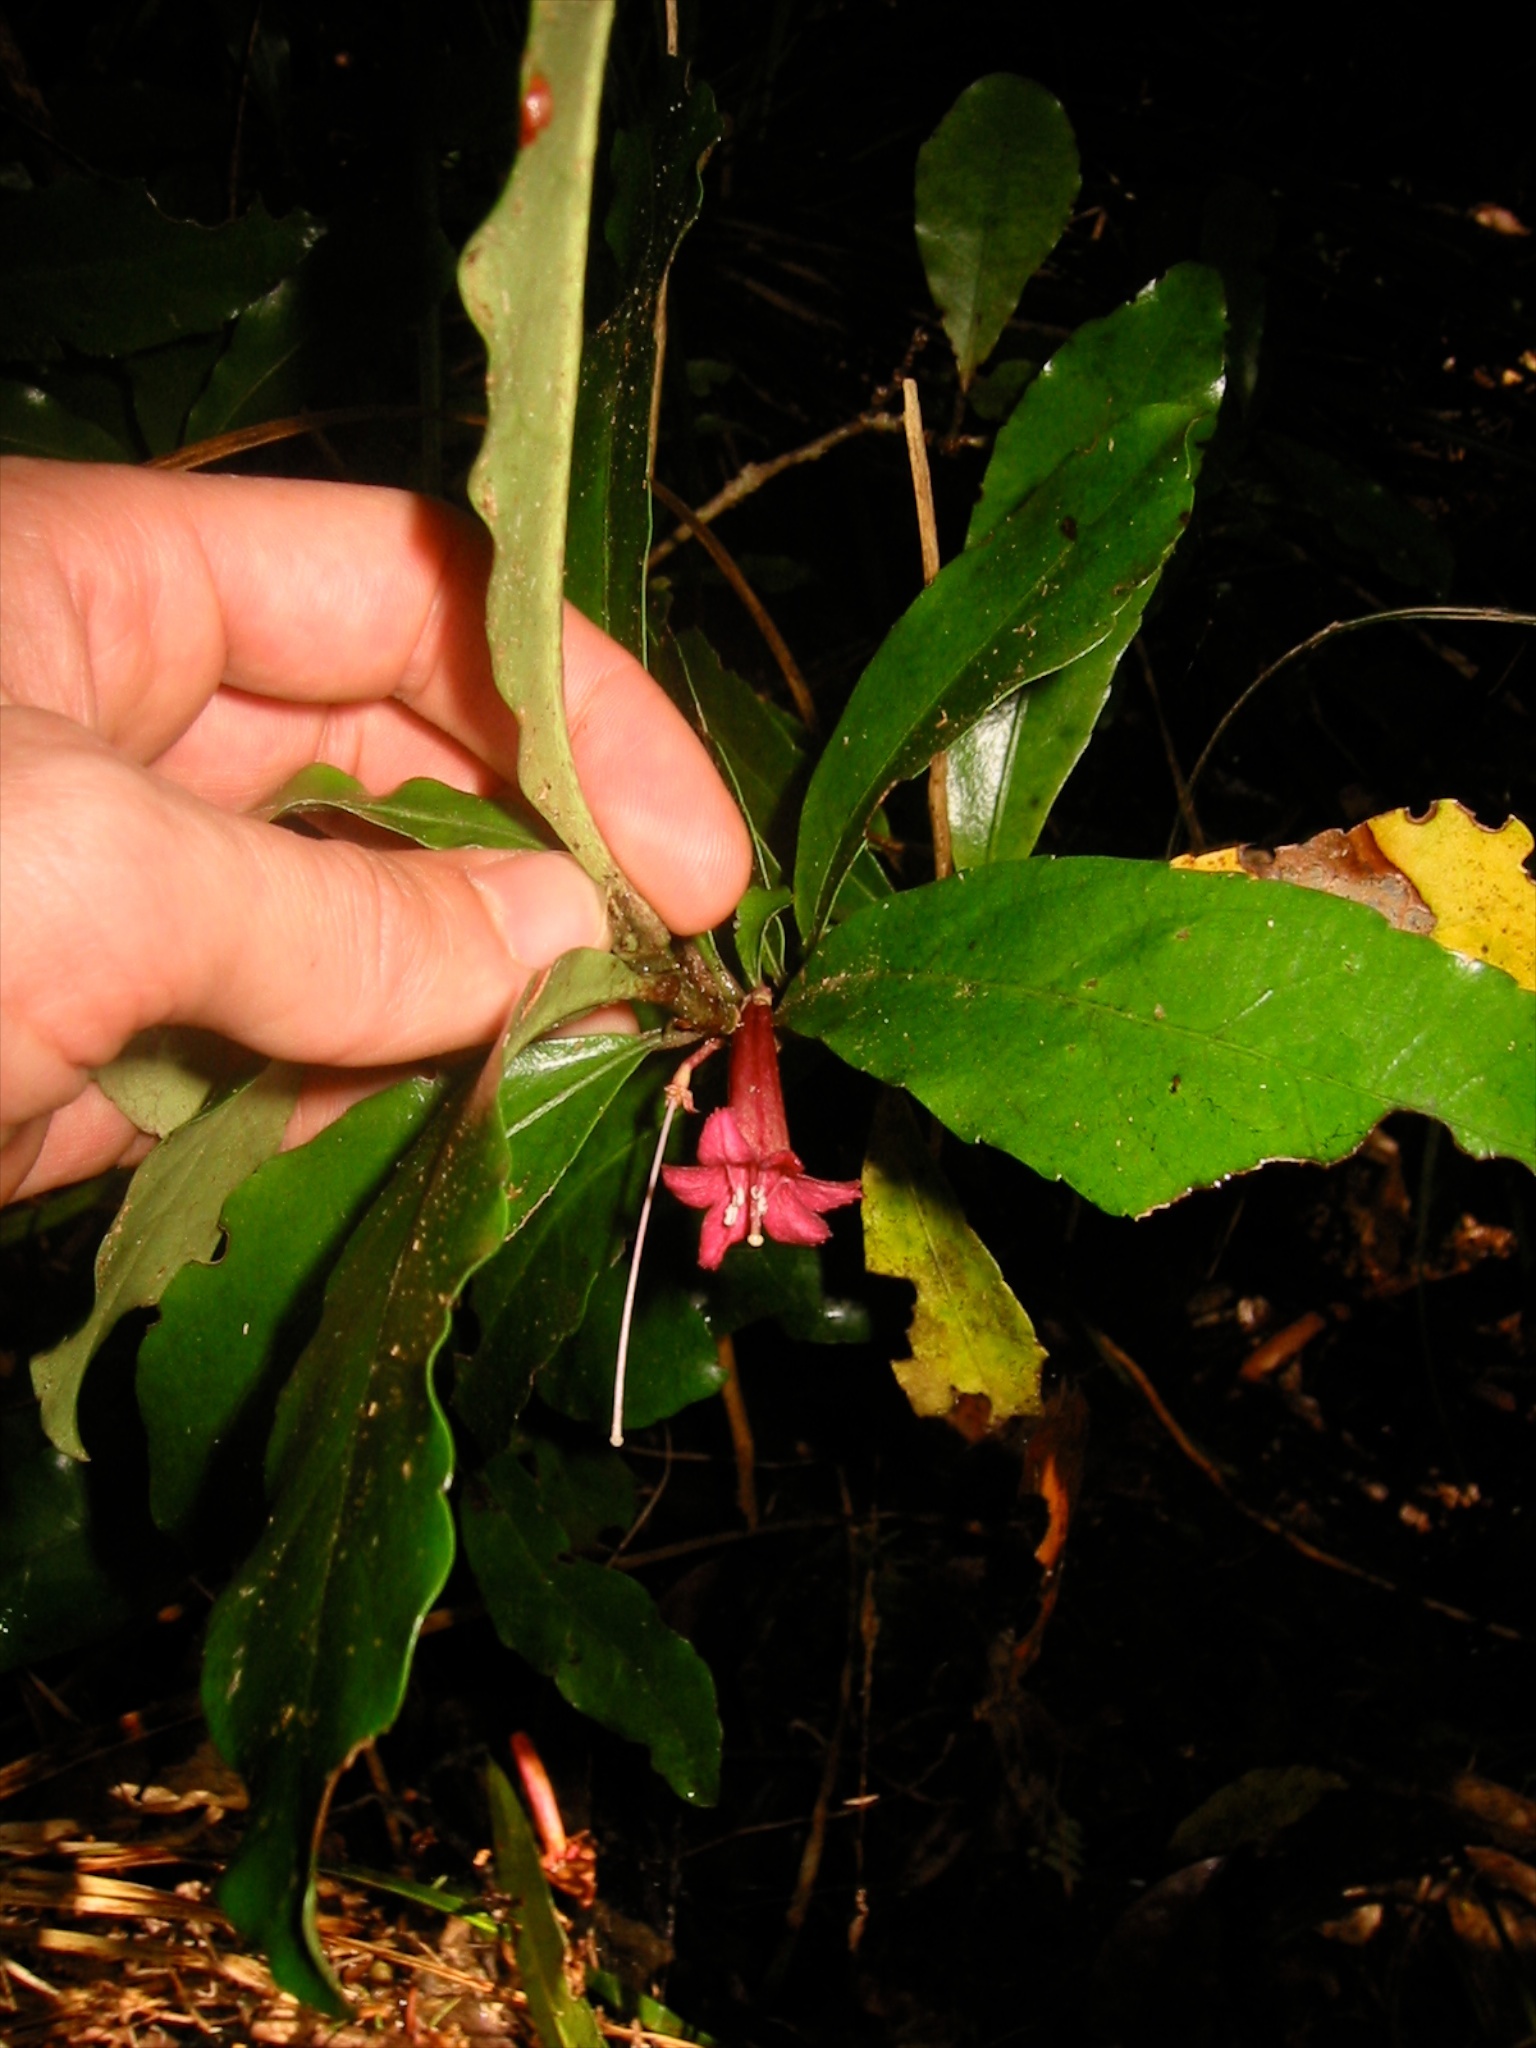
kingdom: Plantae
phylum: Tracheophyta
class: Magnoliopsida
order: Asterales
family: Alseuosmiaceae
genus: Alseuosmia
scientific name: Alseuosmia macrophylla
